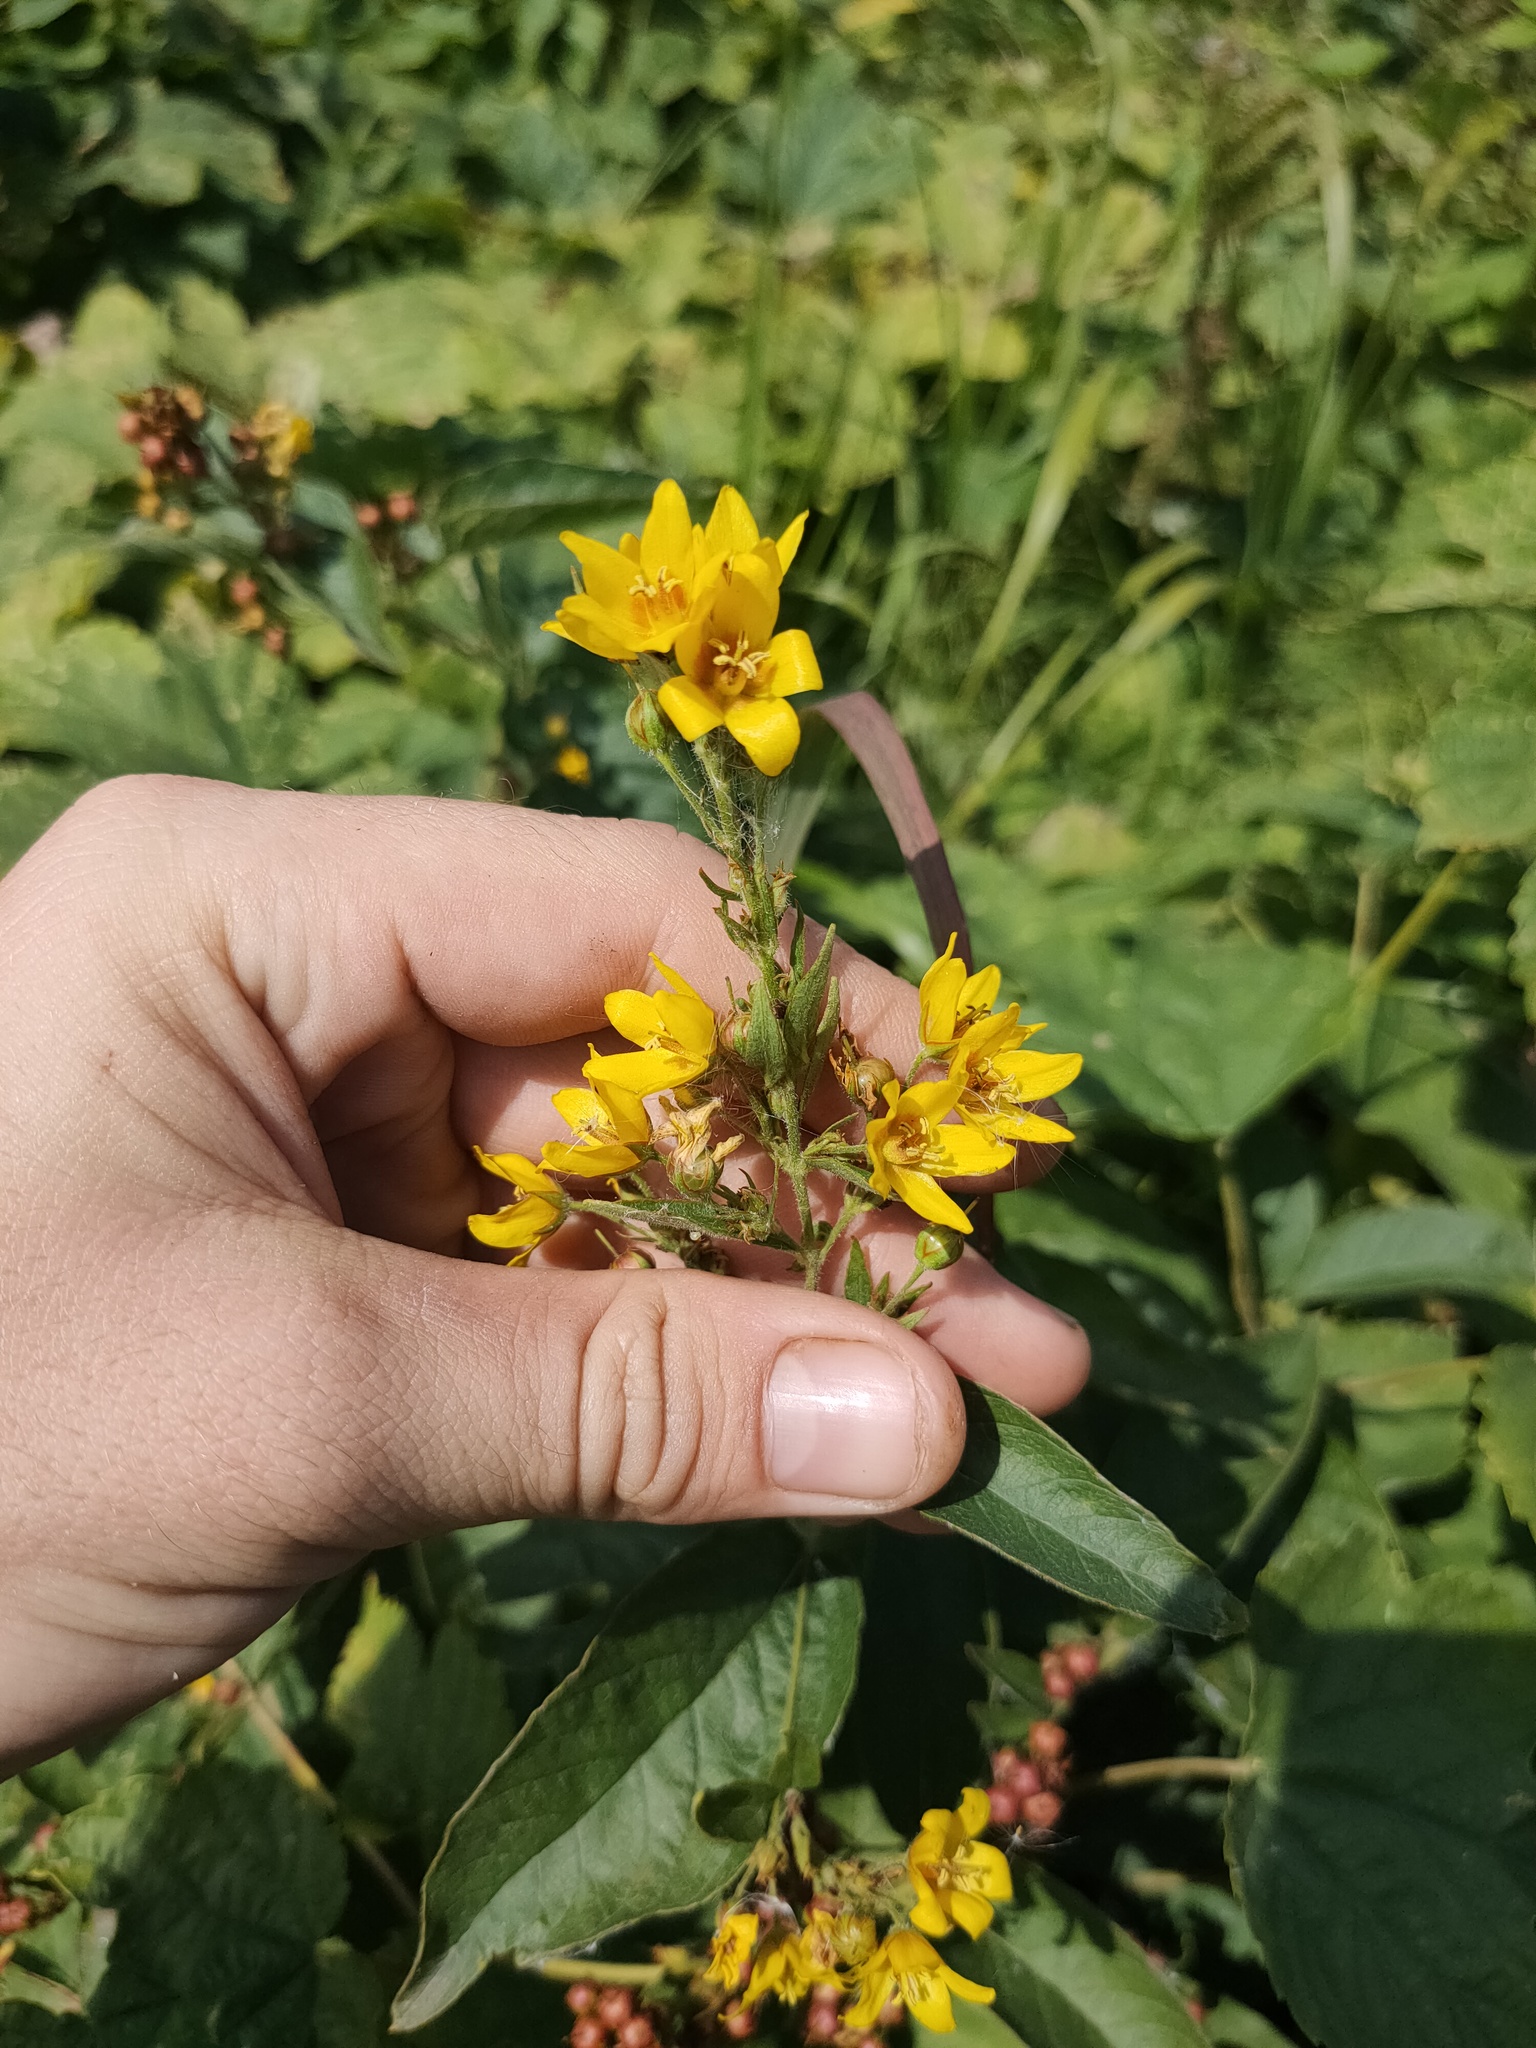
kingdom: Plantae
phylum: Tracheophyta
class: Magnoliopsida
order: Ericales
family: Primulaceae
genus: Lysimachia
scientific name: Lysimachia vulgaris
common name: Yellow loosestrife
